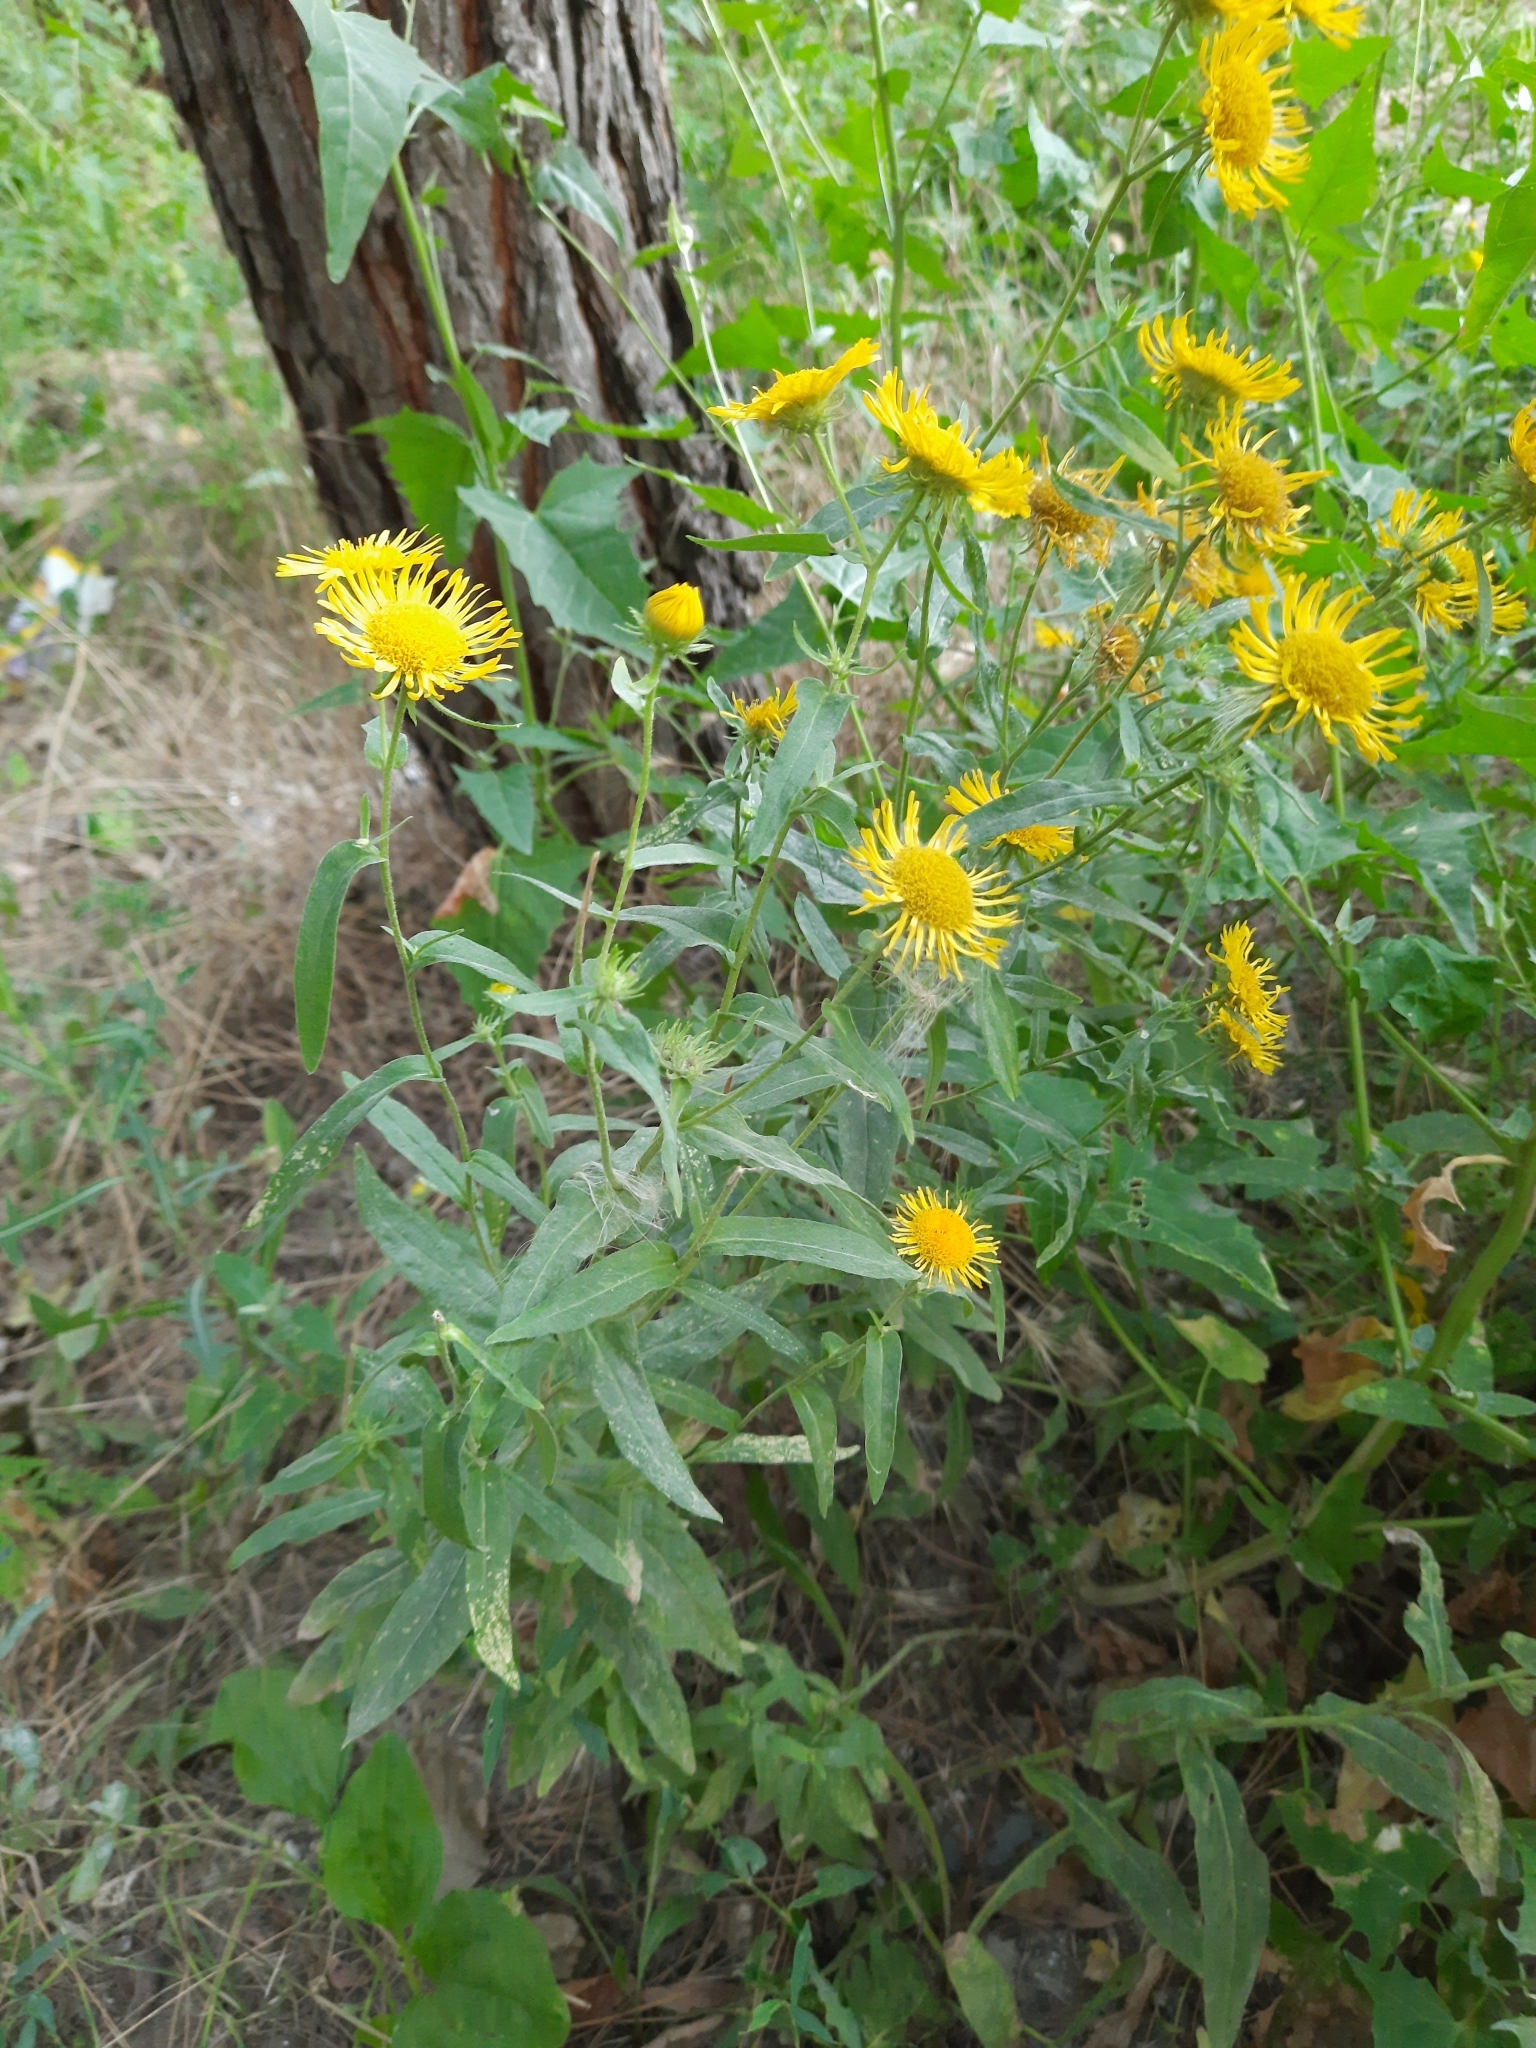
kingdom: Plantae
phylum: Tracheophyta
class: Magnoliopsida
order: Asterales
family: Asteraceae
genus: Pentanema
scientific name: Pentanema britannicum
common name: British elecampane
